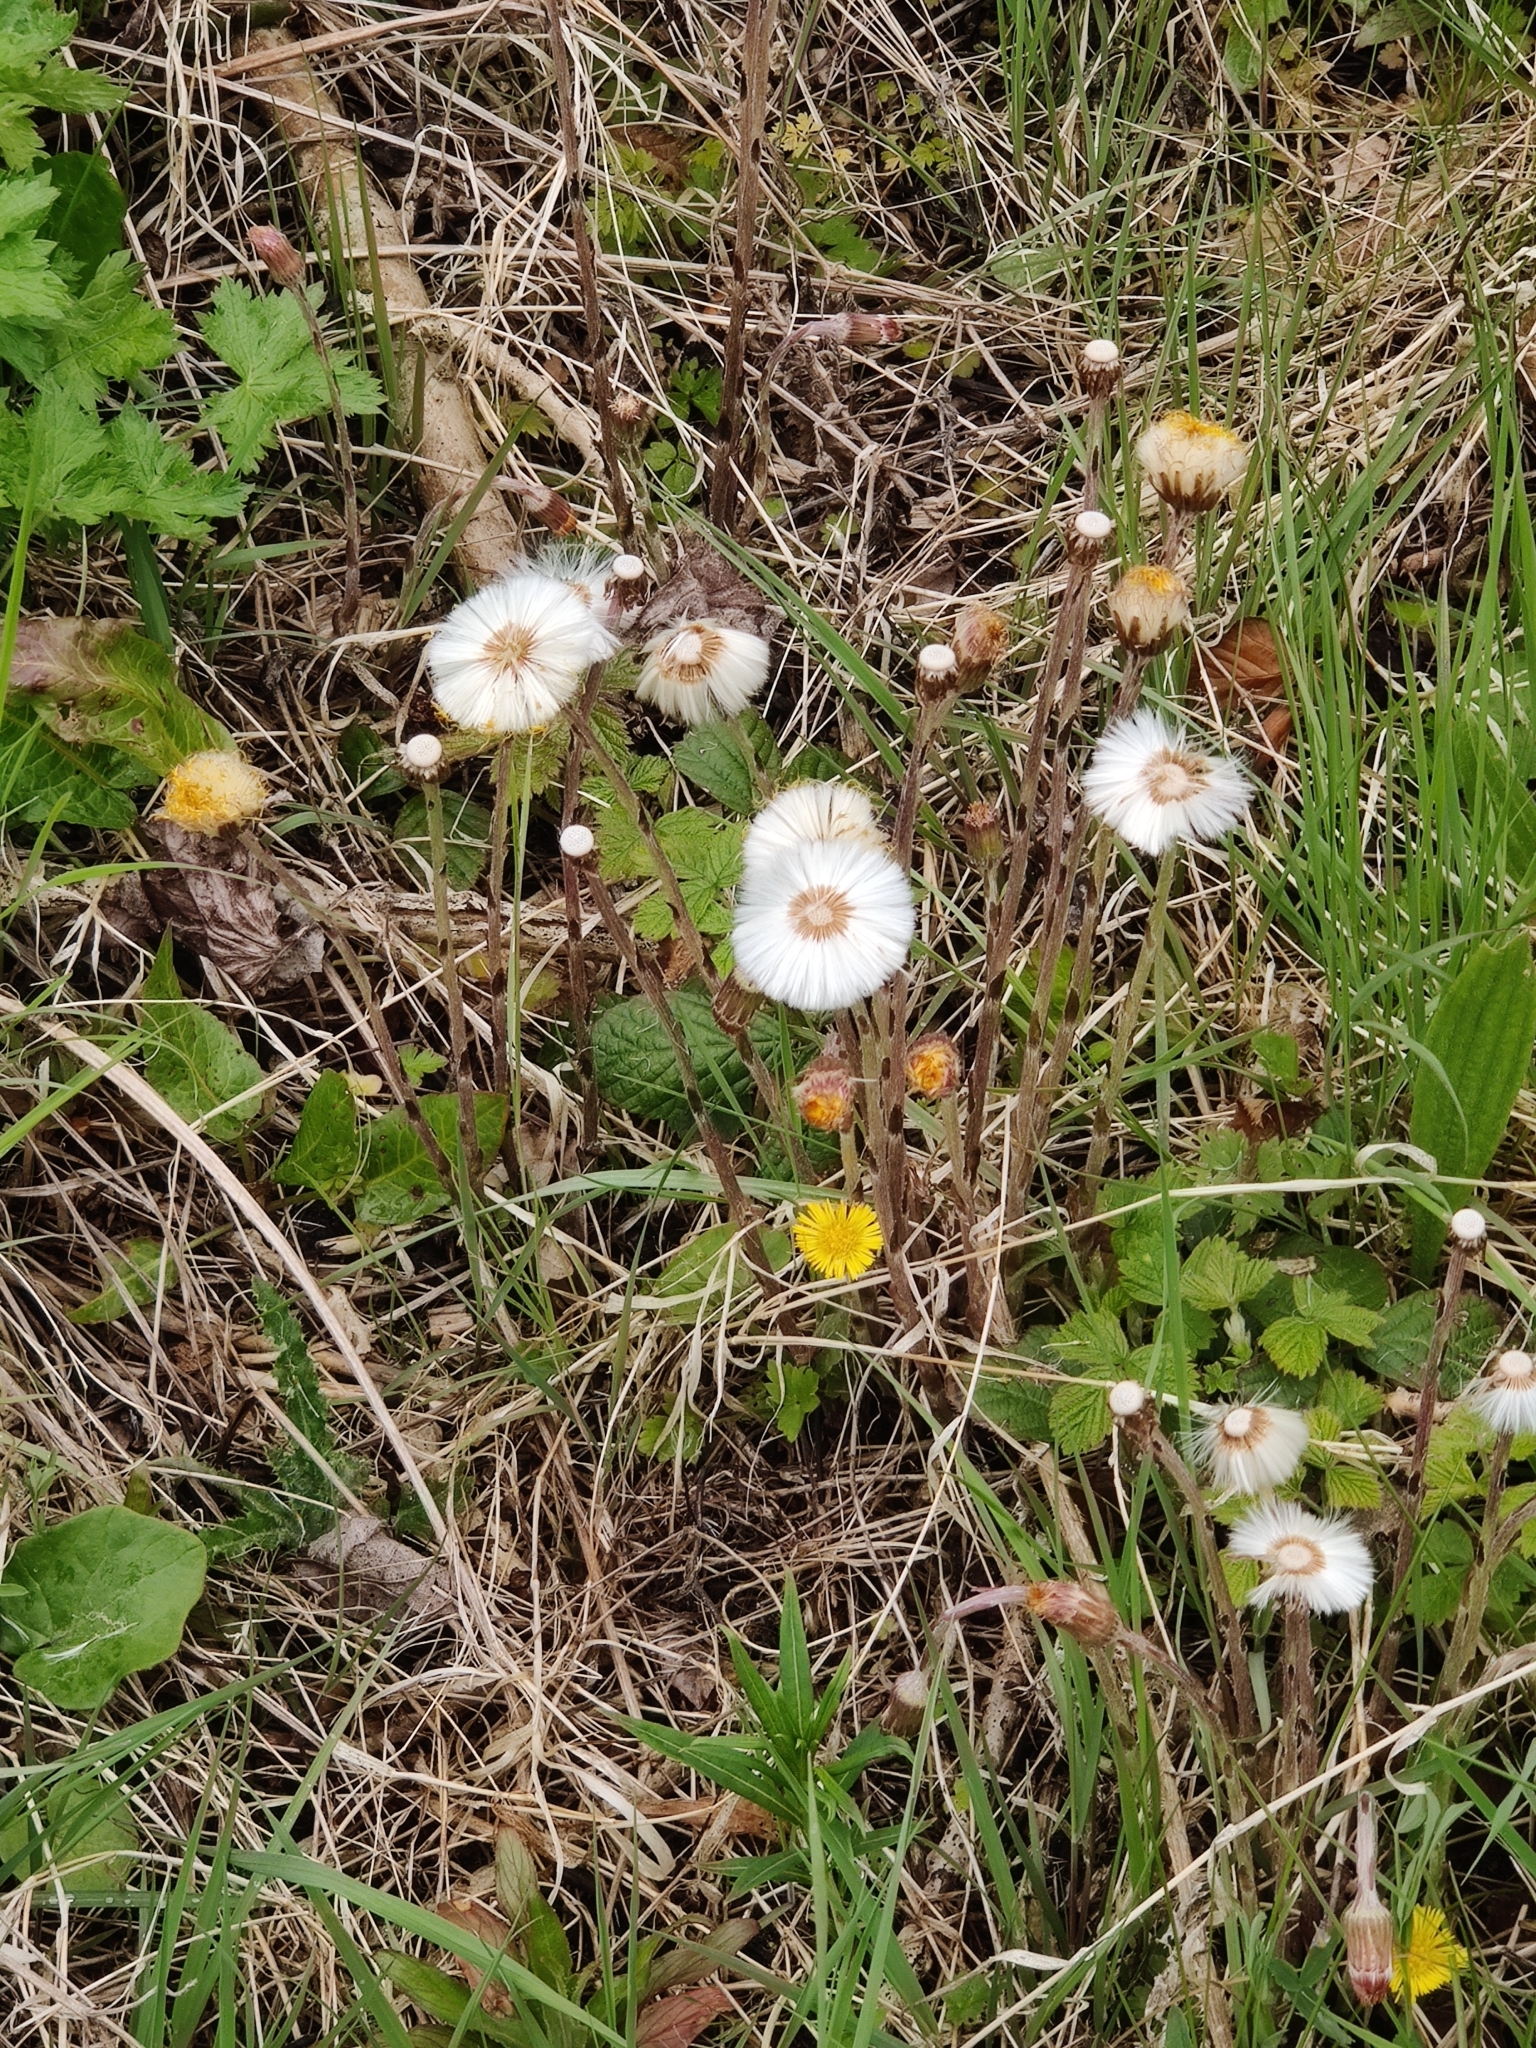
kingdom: Plantae
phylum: Tracheophyta
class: Magnoliopsida
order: Asterales
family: Asteraceae
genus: Tussilago
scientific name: Tussilago farfara
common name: Coltsfoot
